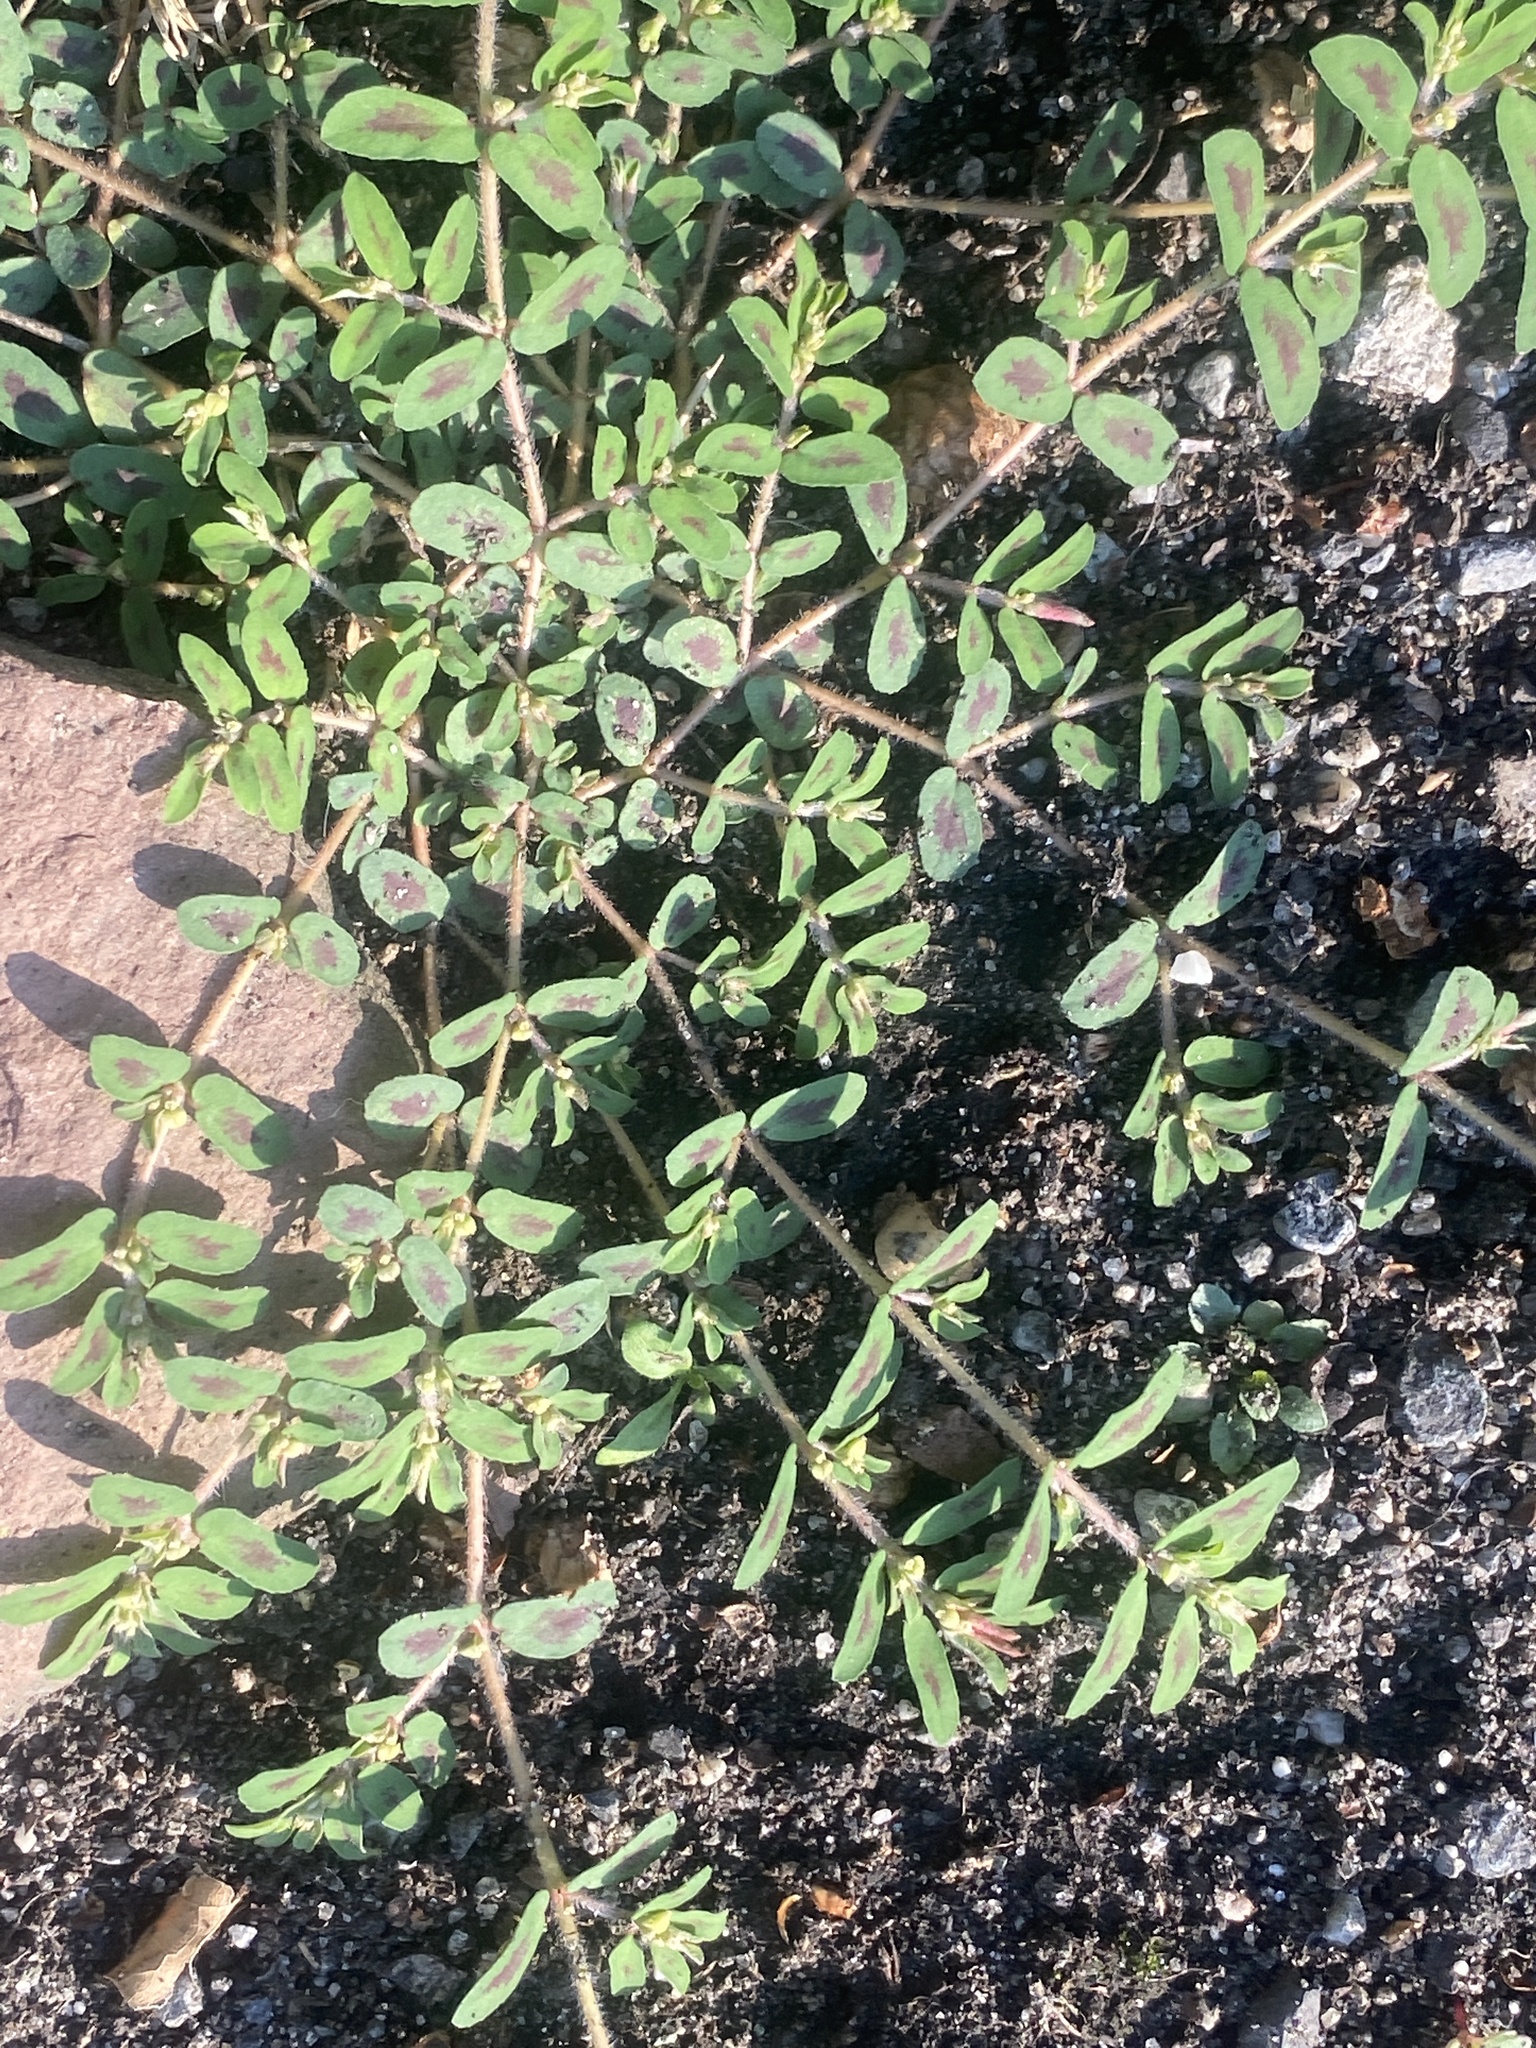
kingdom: Plantae
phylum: Tracheophyta
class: Magnoliopsida
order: Malpighiales
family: Euphorbiaceae
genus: Euphorbia
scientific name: Euphorbia maculata
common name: Spotted spurge
